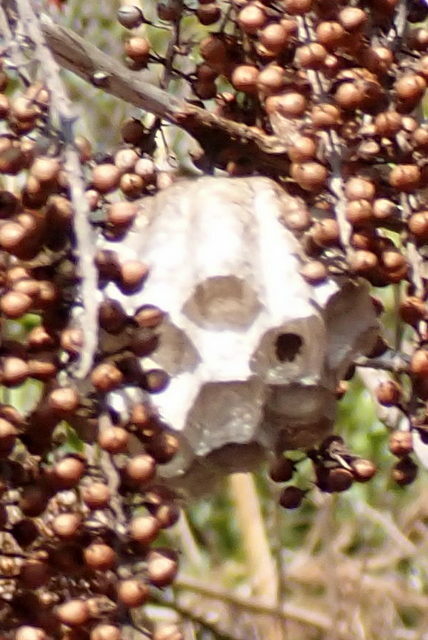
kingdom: Animalia
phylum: Arthropoda
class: Insecta
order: Hymenoptera
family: Vespidae
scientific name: Vespidae
